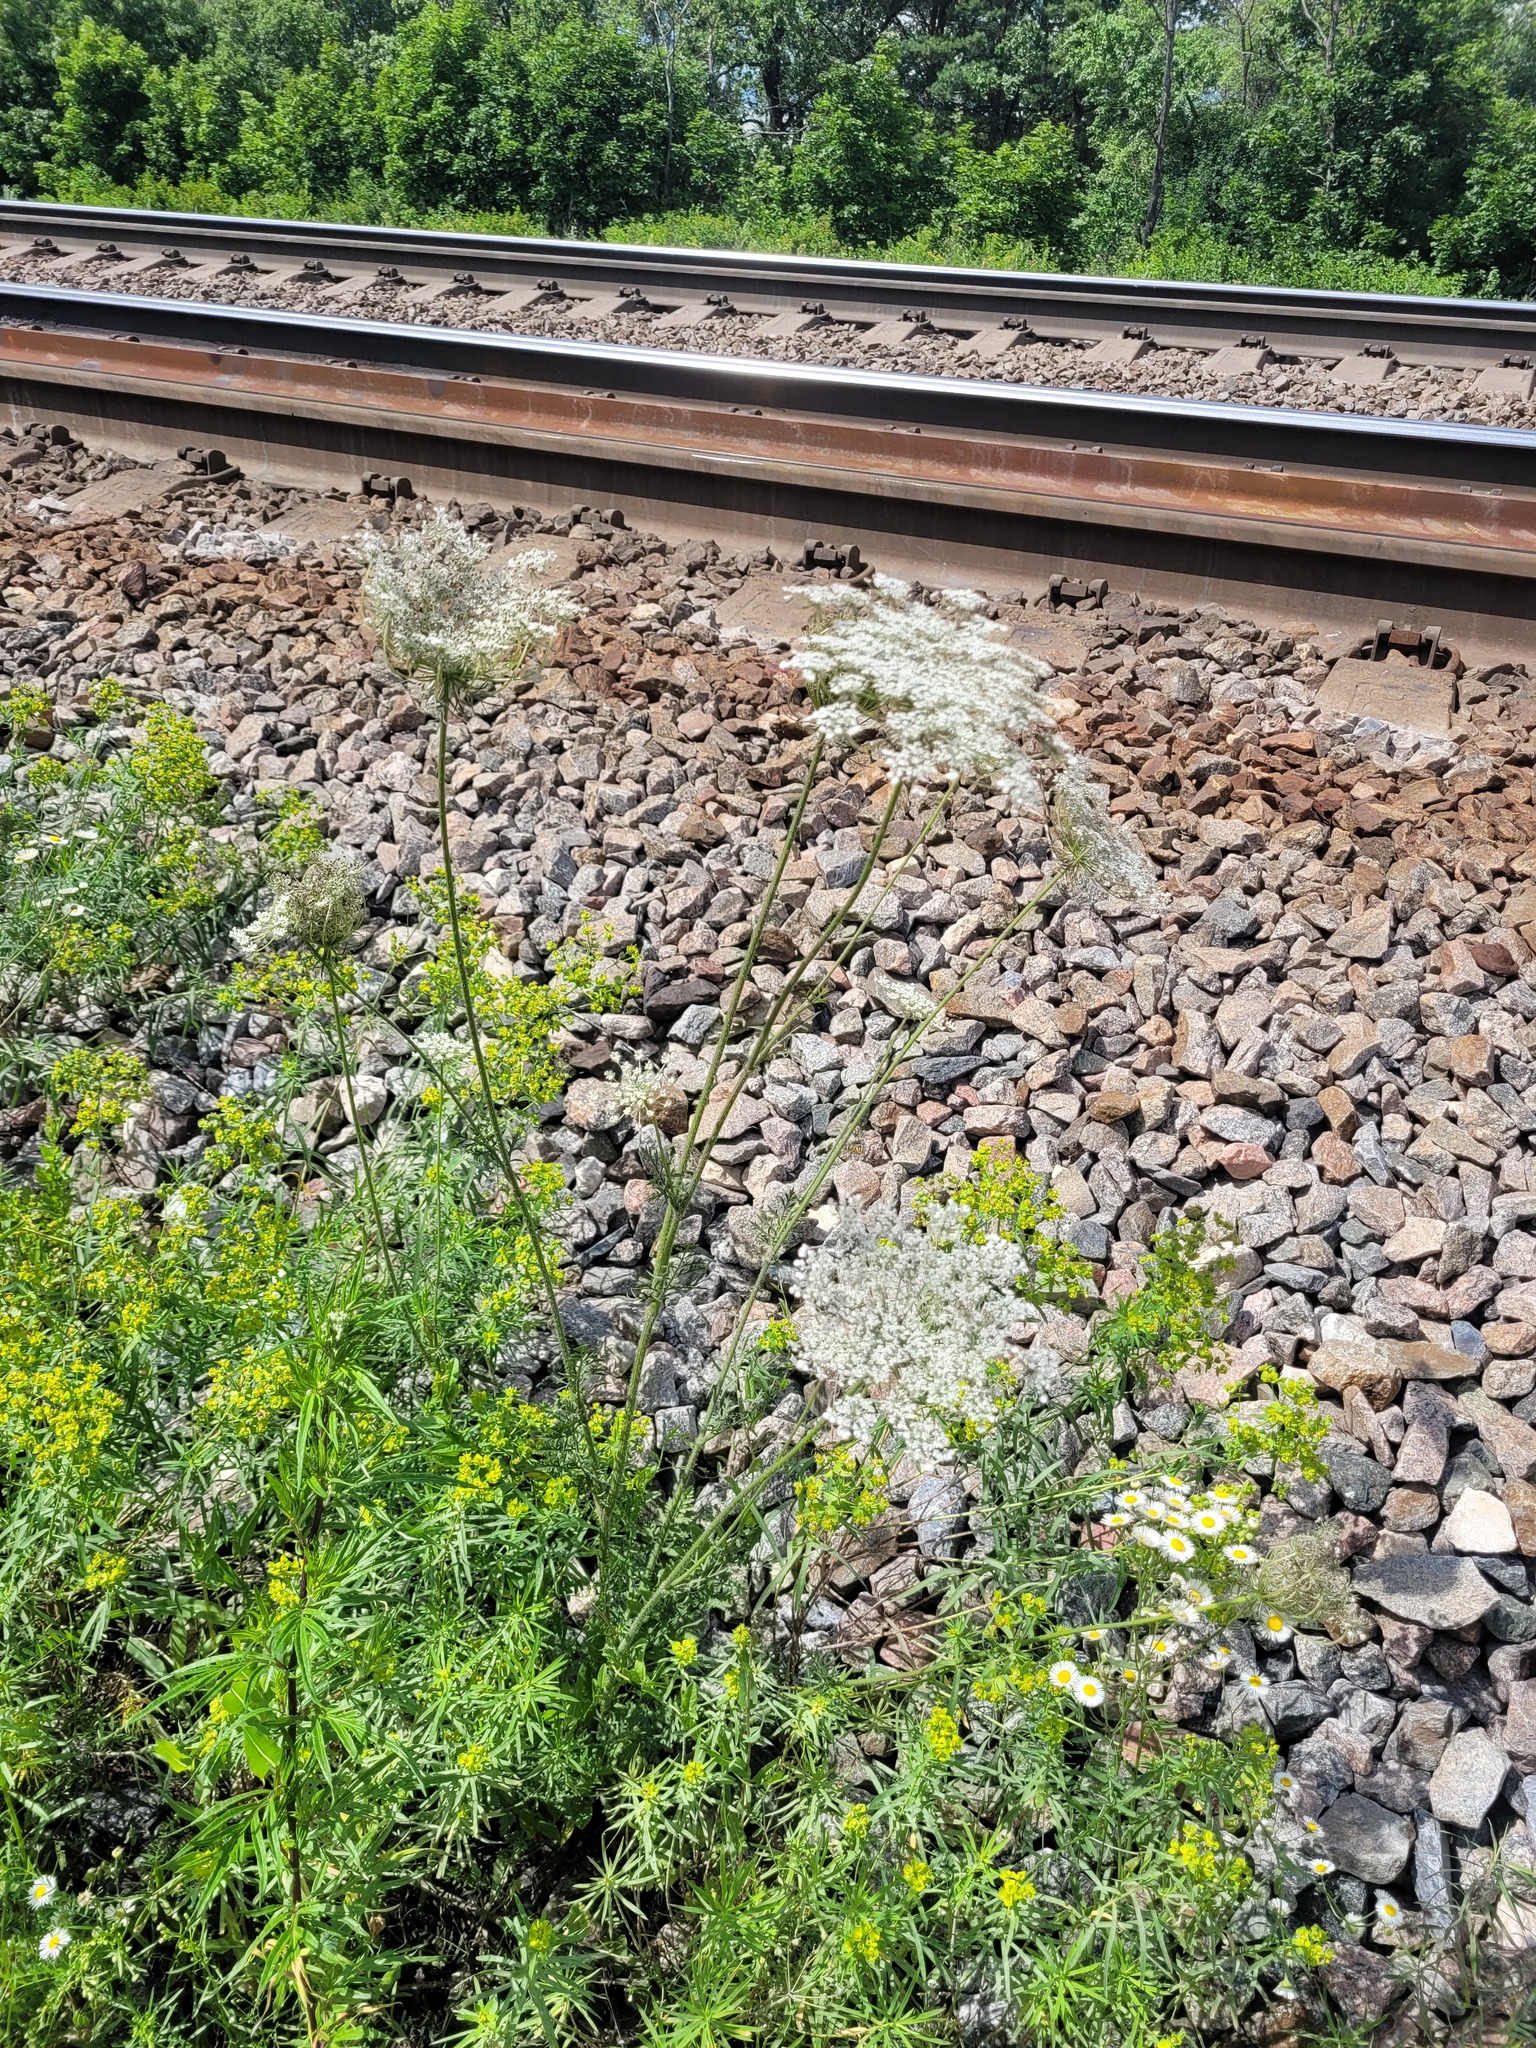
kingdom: Plantae
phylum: Tracheophyta
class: Magnoliopsida
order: Apiales
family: Apiaceae
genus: Daucus
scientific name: Daucus carota
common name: Wild carrot
